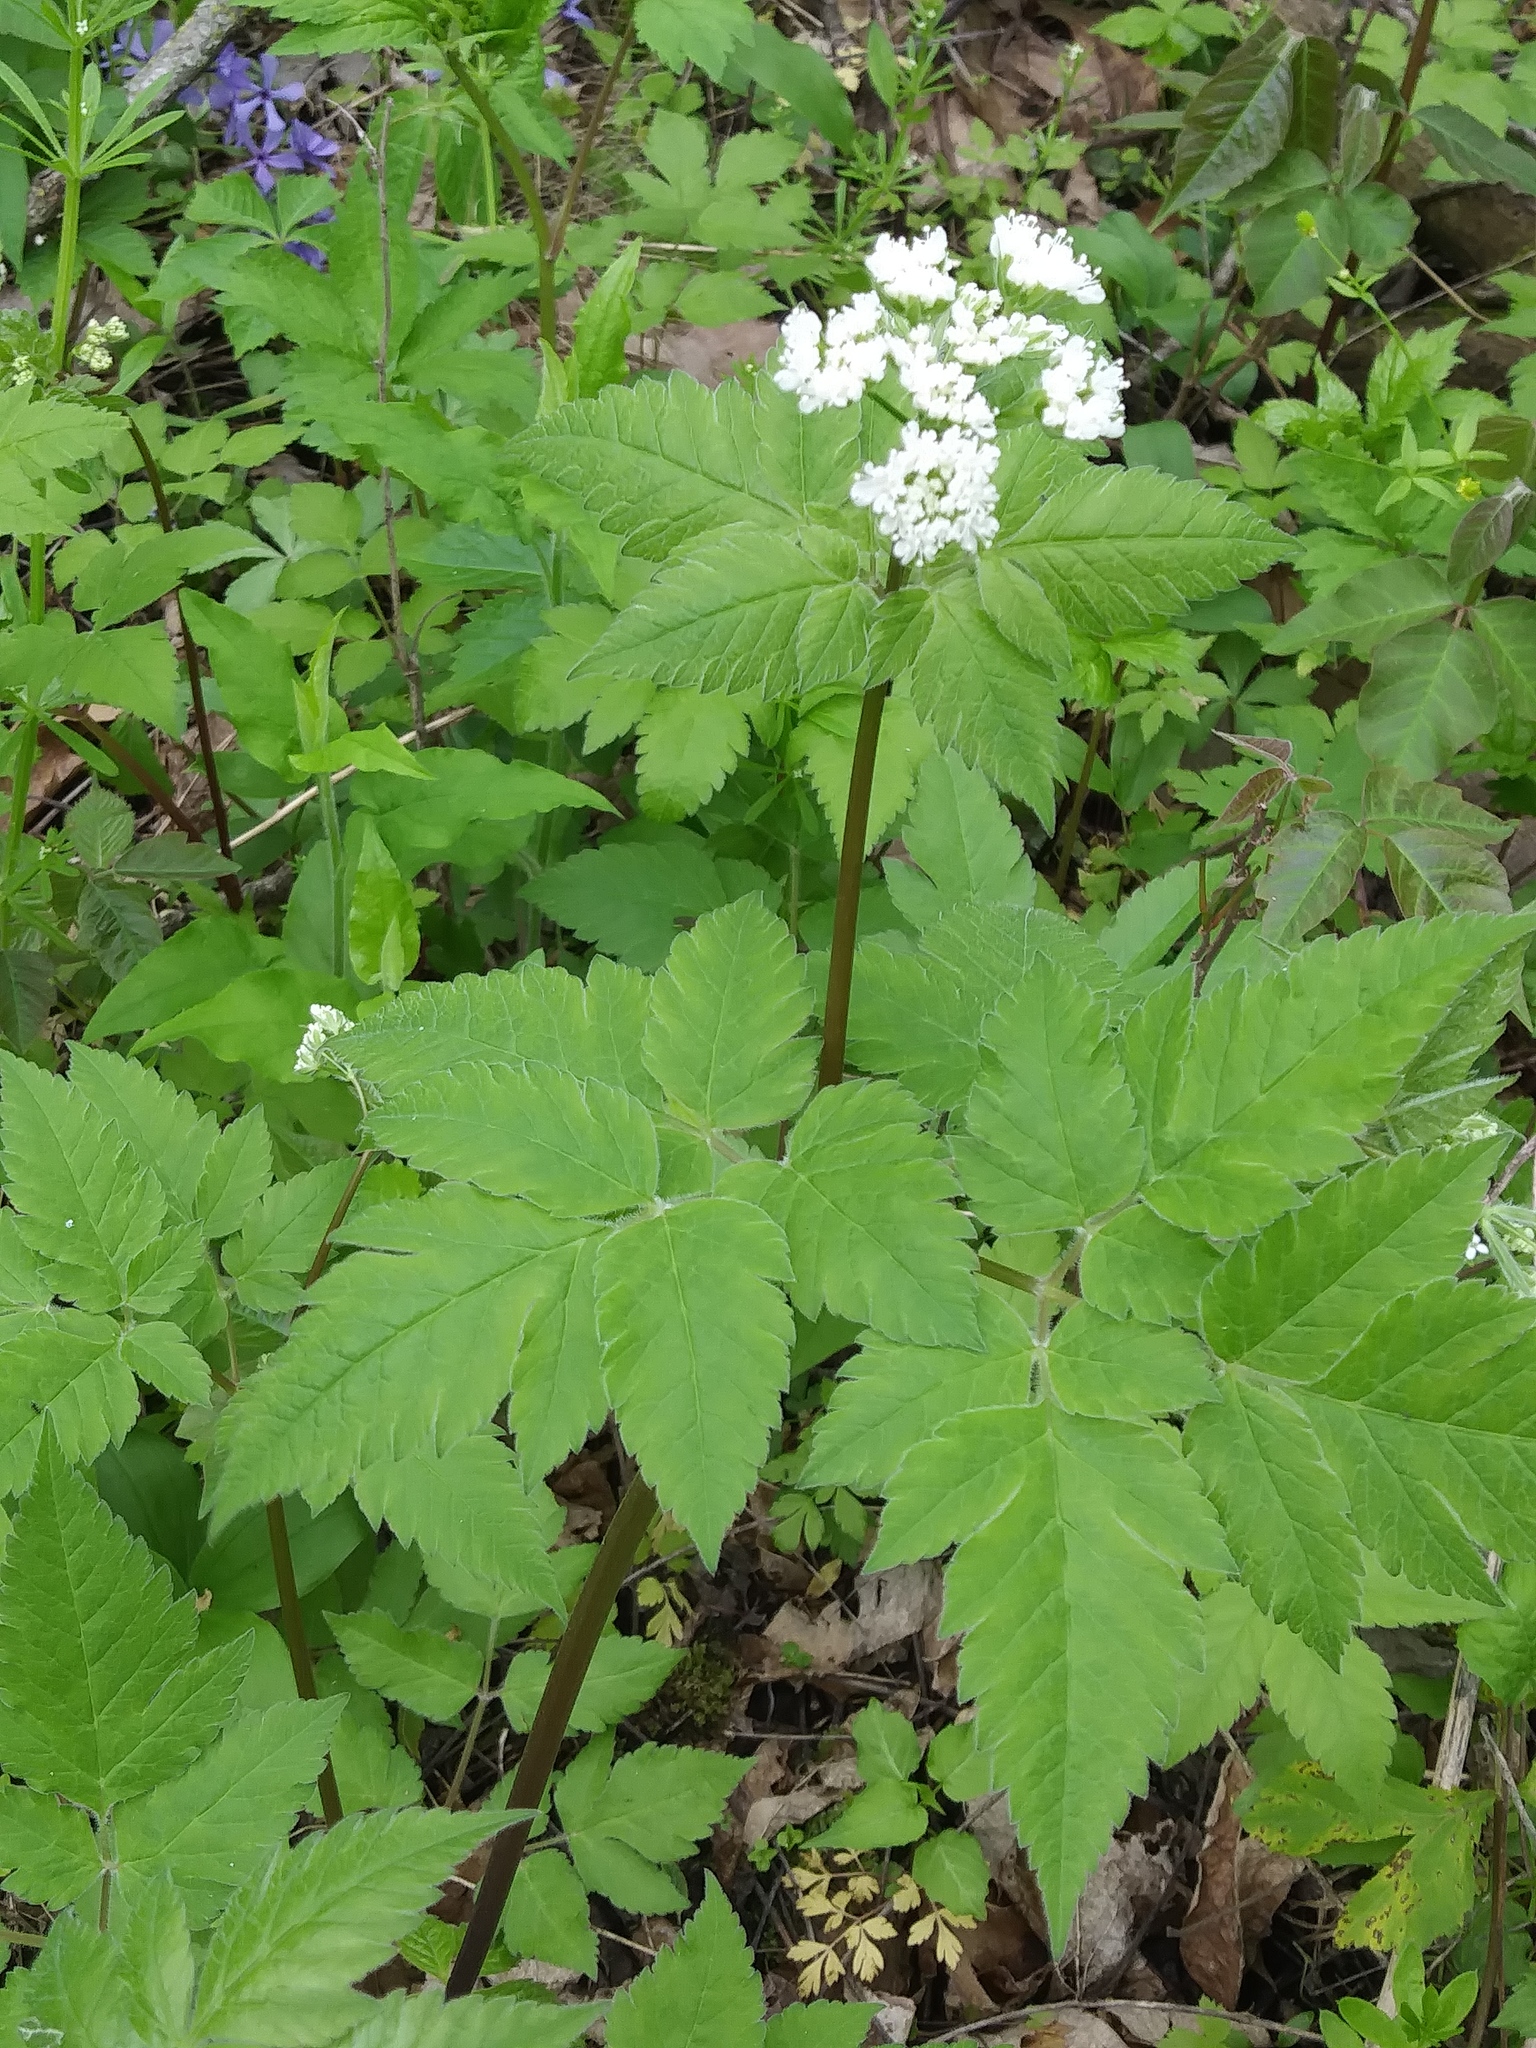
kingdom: Plantae
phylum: Tracheophyta
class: Magnoliopsida
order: Apiales
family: Apiaceae
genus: Osmorhiza
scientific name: Osmorhiza longistylis
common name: Smooth sweet cicely
